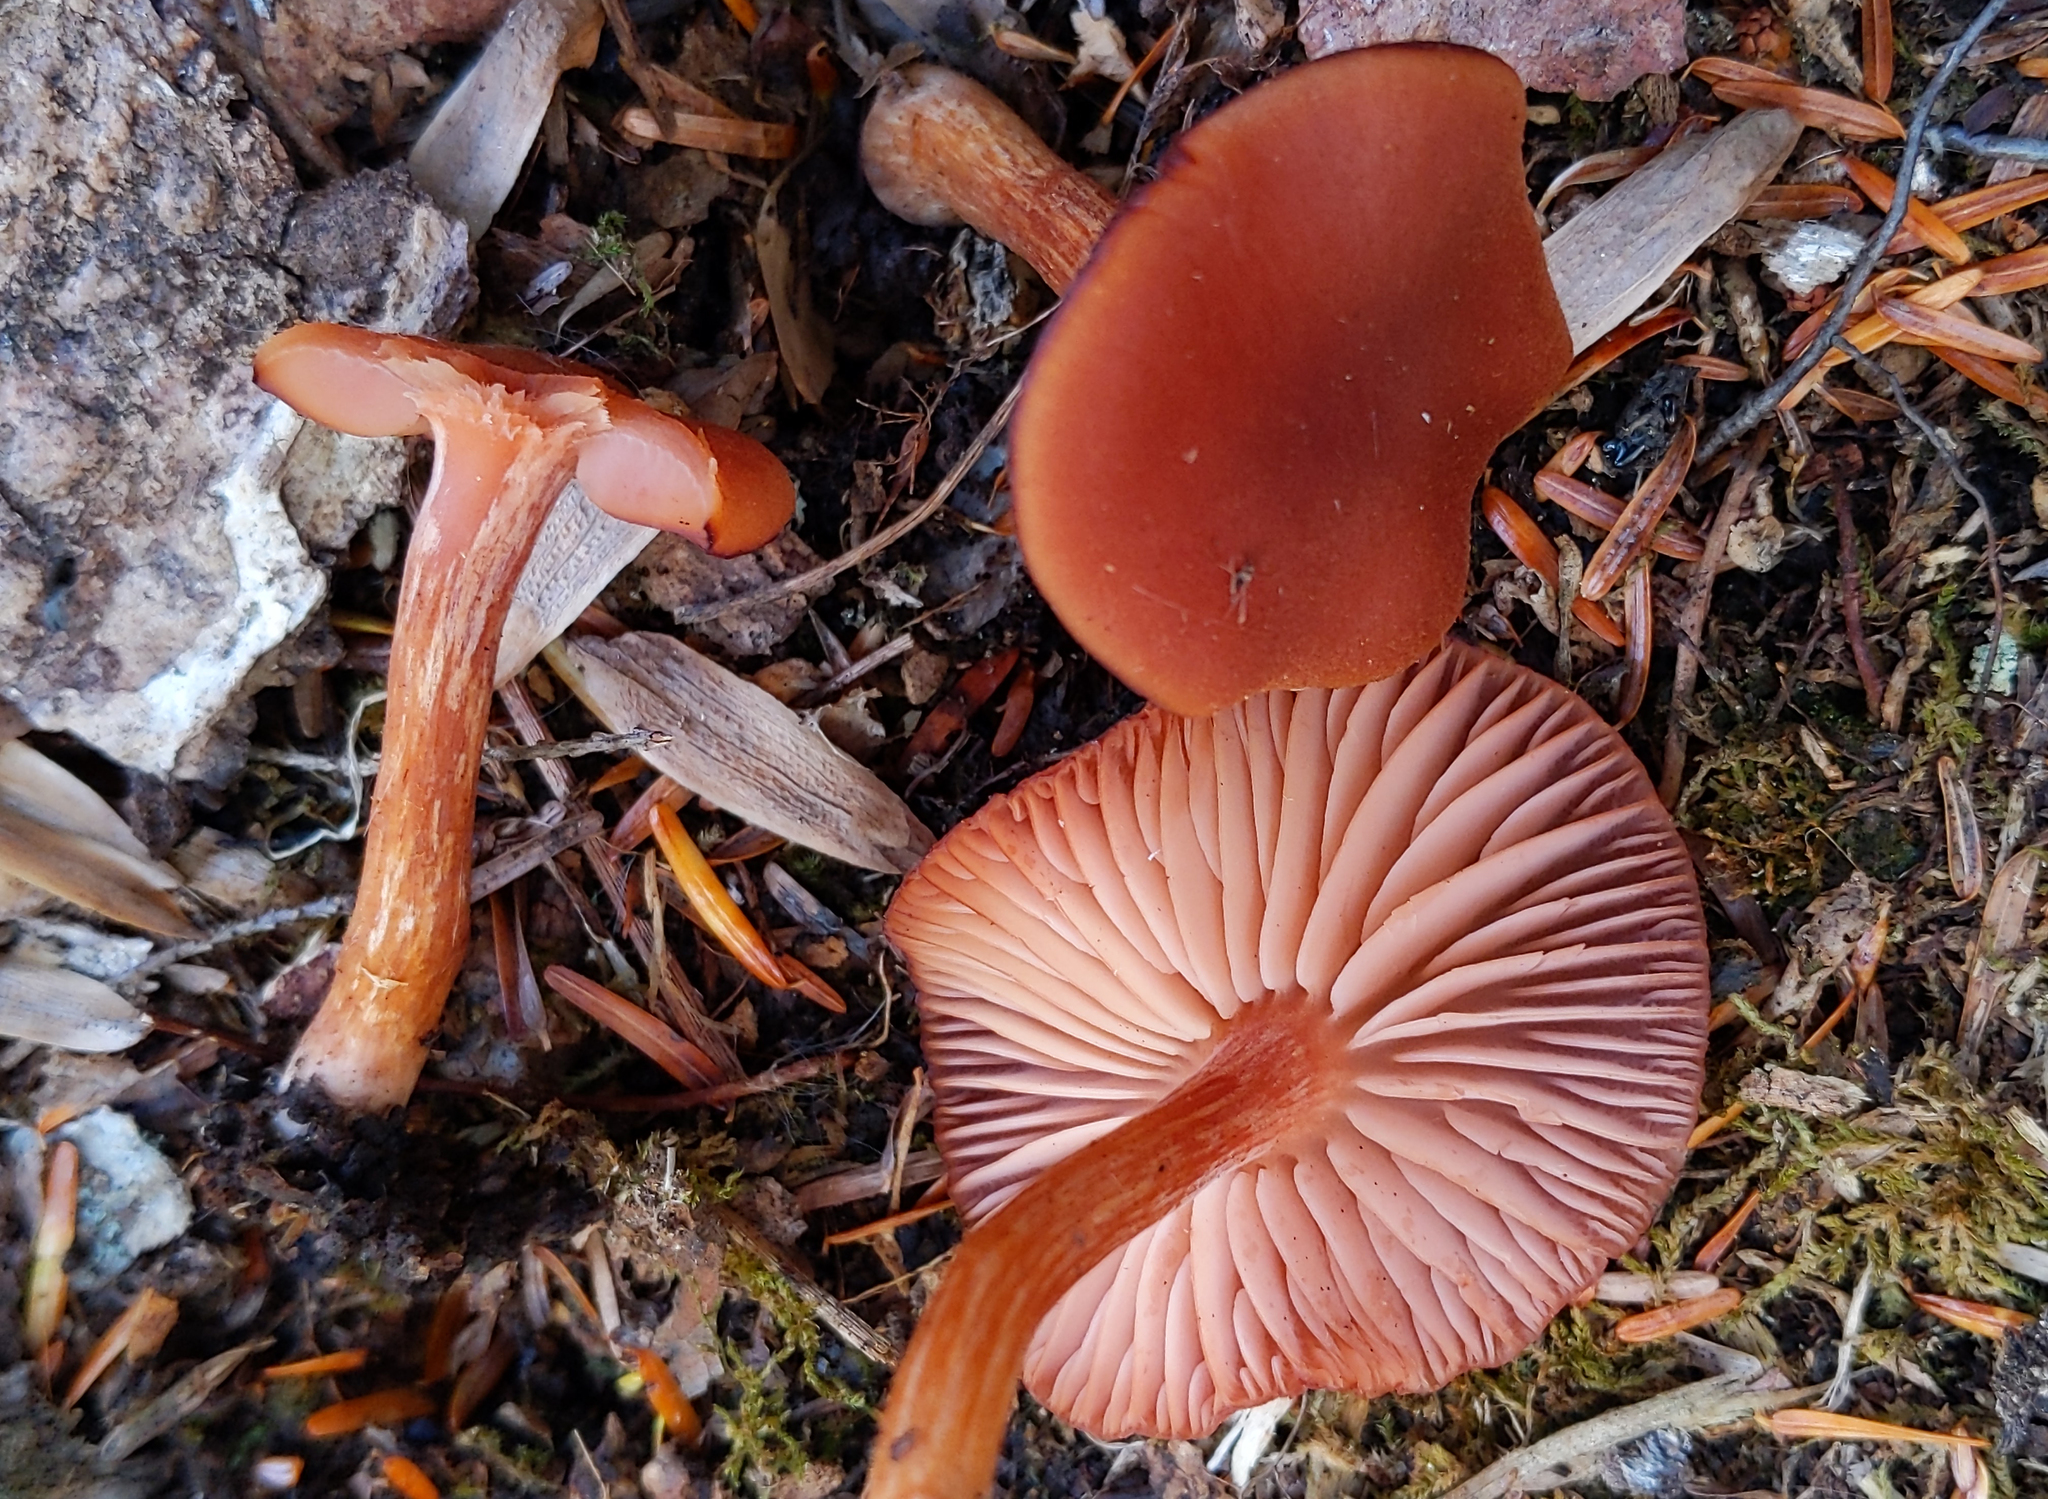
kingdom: Fungi
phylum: Basidiomycota
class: Agaricomycetes
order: Agaricales
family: Hydnangiaceae
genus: Laccaria
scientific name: Laccaria laccata
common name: Deceiver
